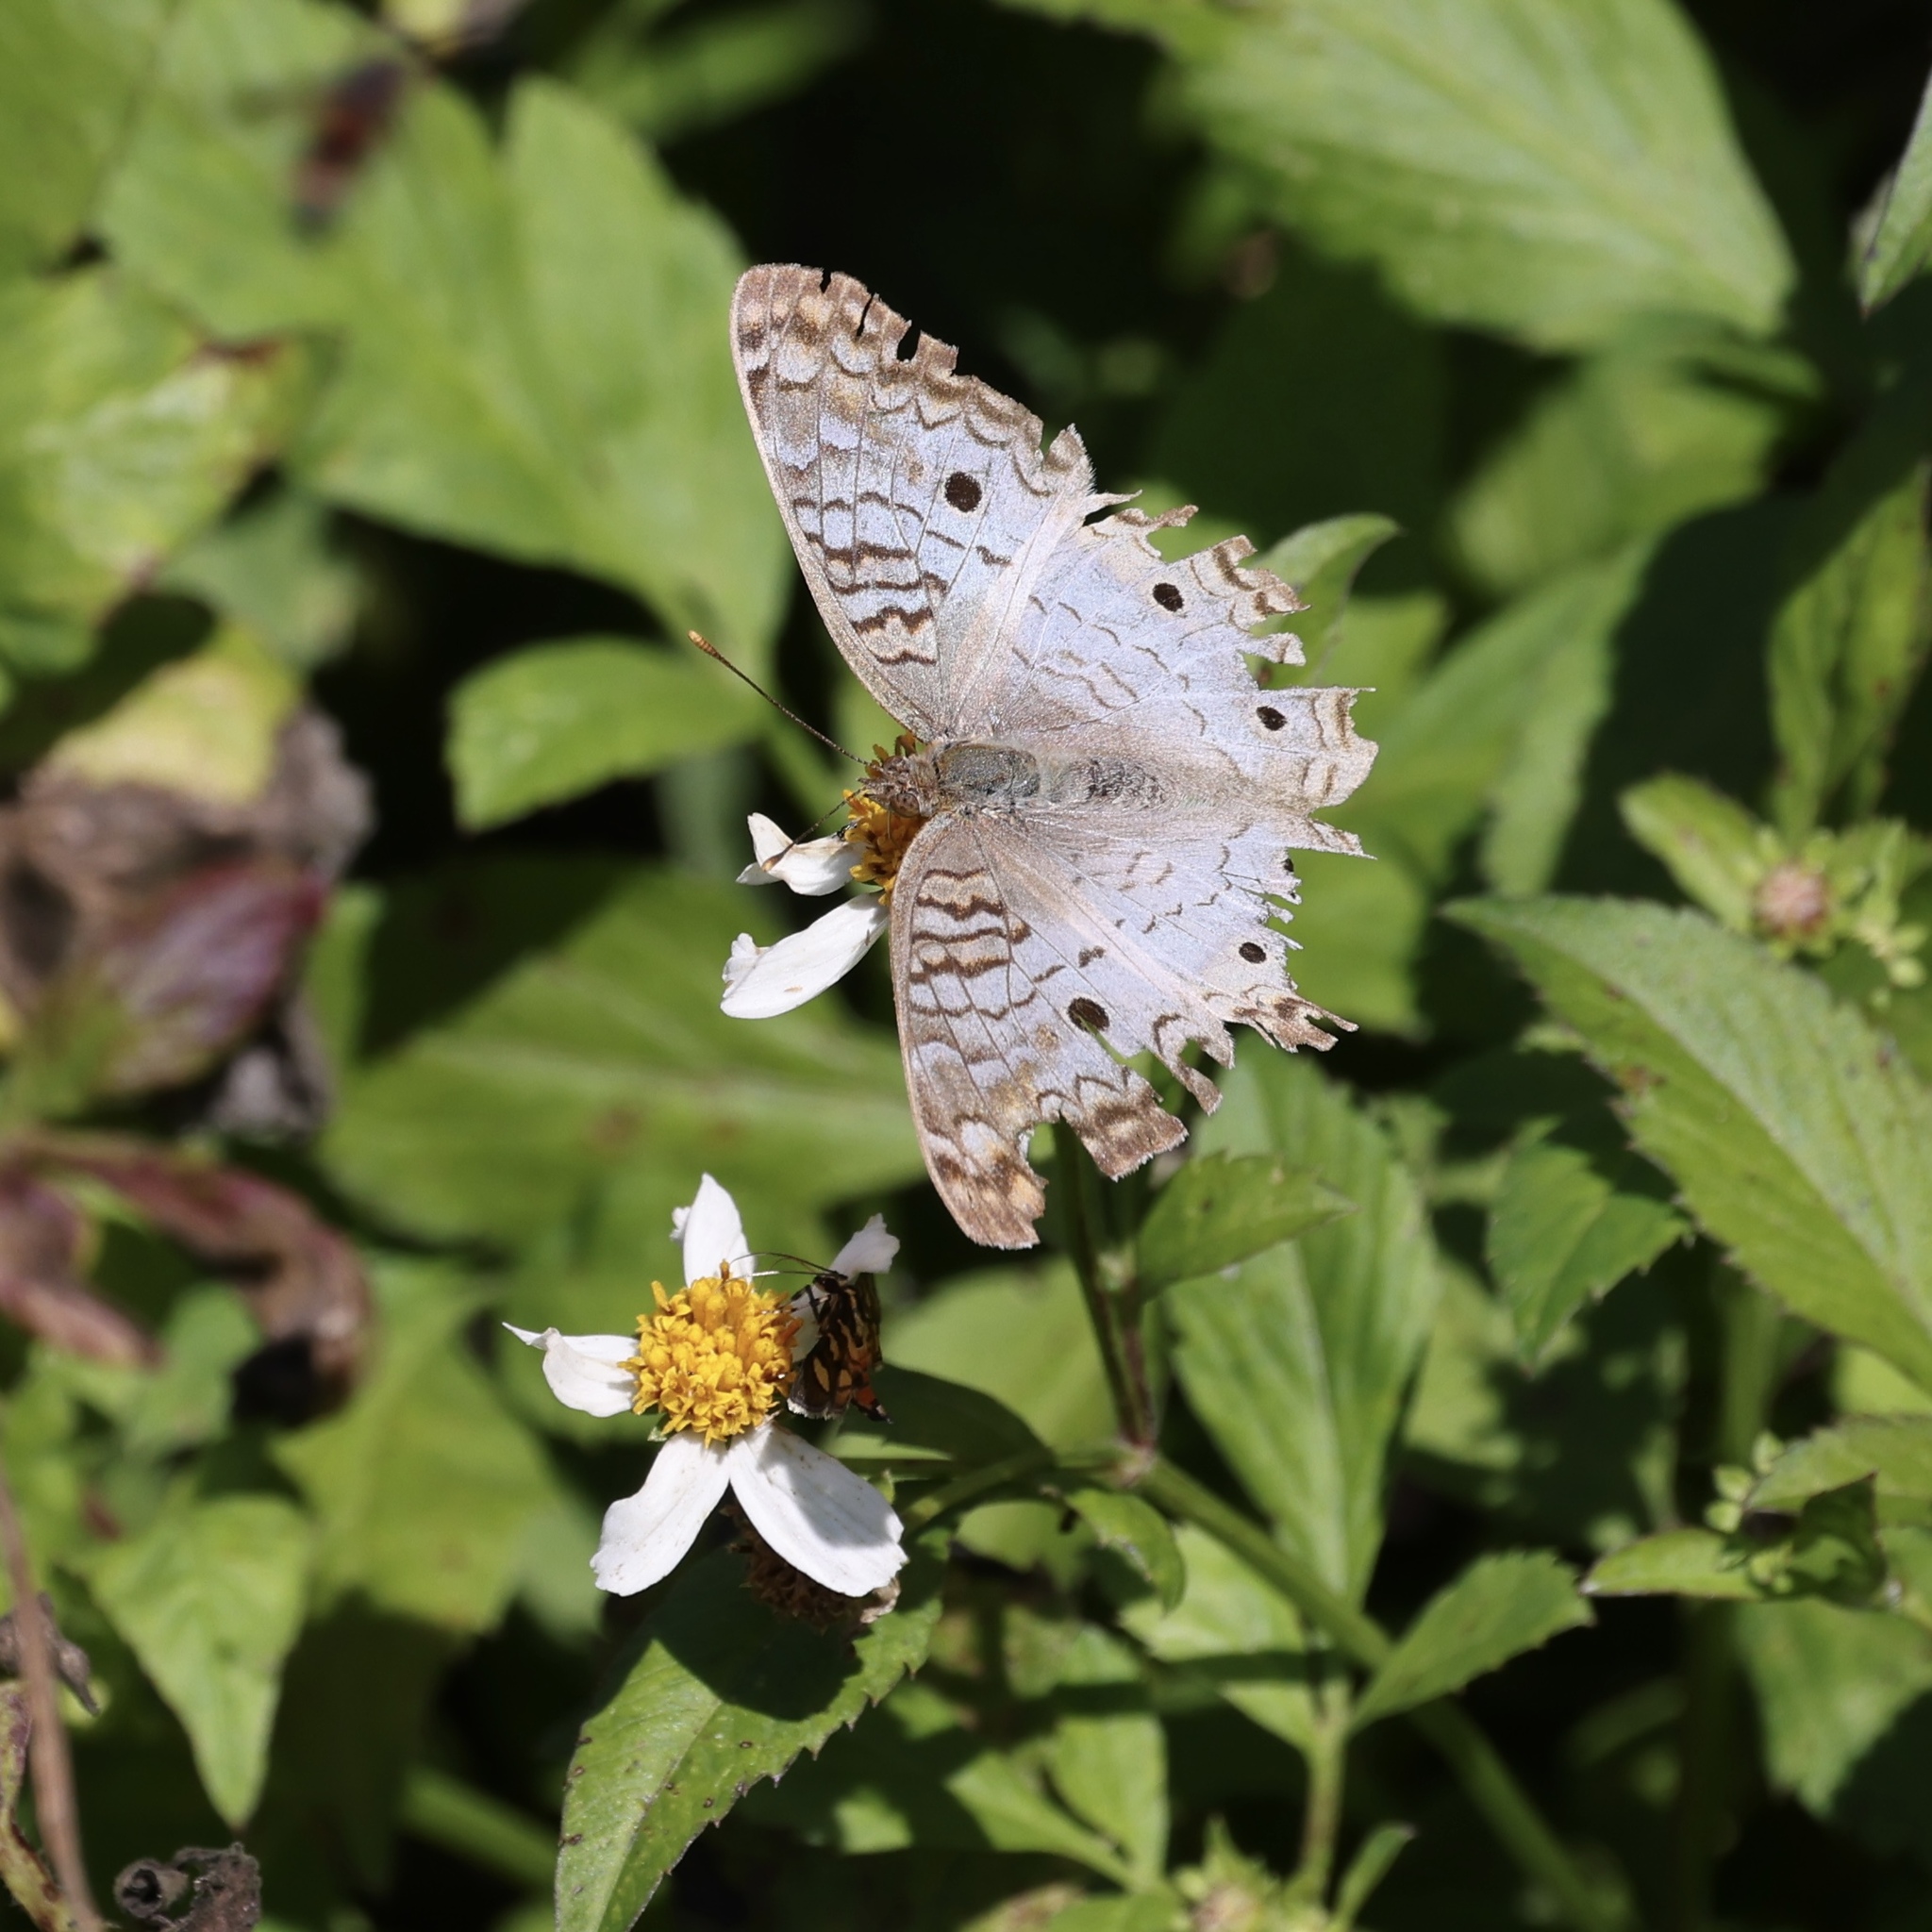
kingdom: Animalia
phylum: Arthropoda
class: Insecta
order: Lepidoptera
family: Nymphalidae
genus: Anartia
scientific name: Anartia jatrophae
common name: White peacock
